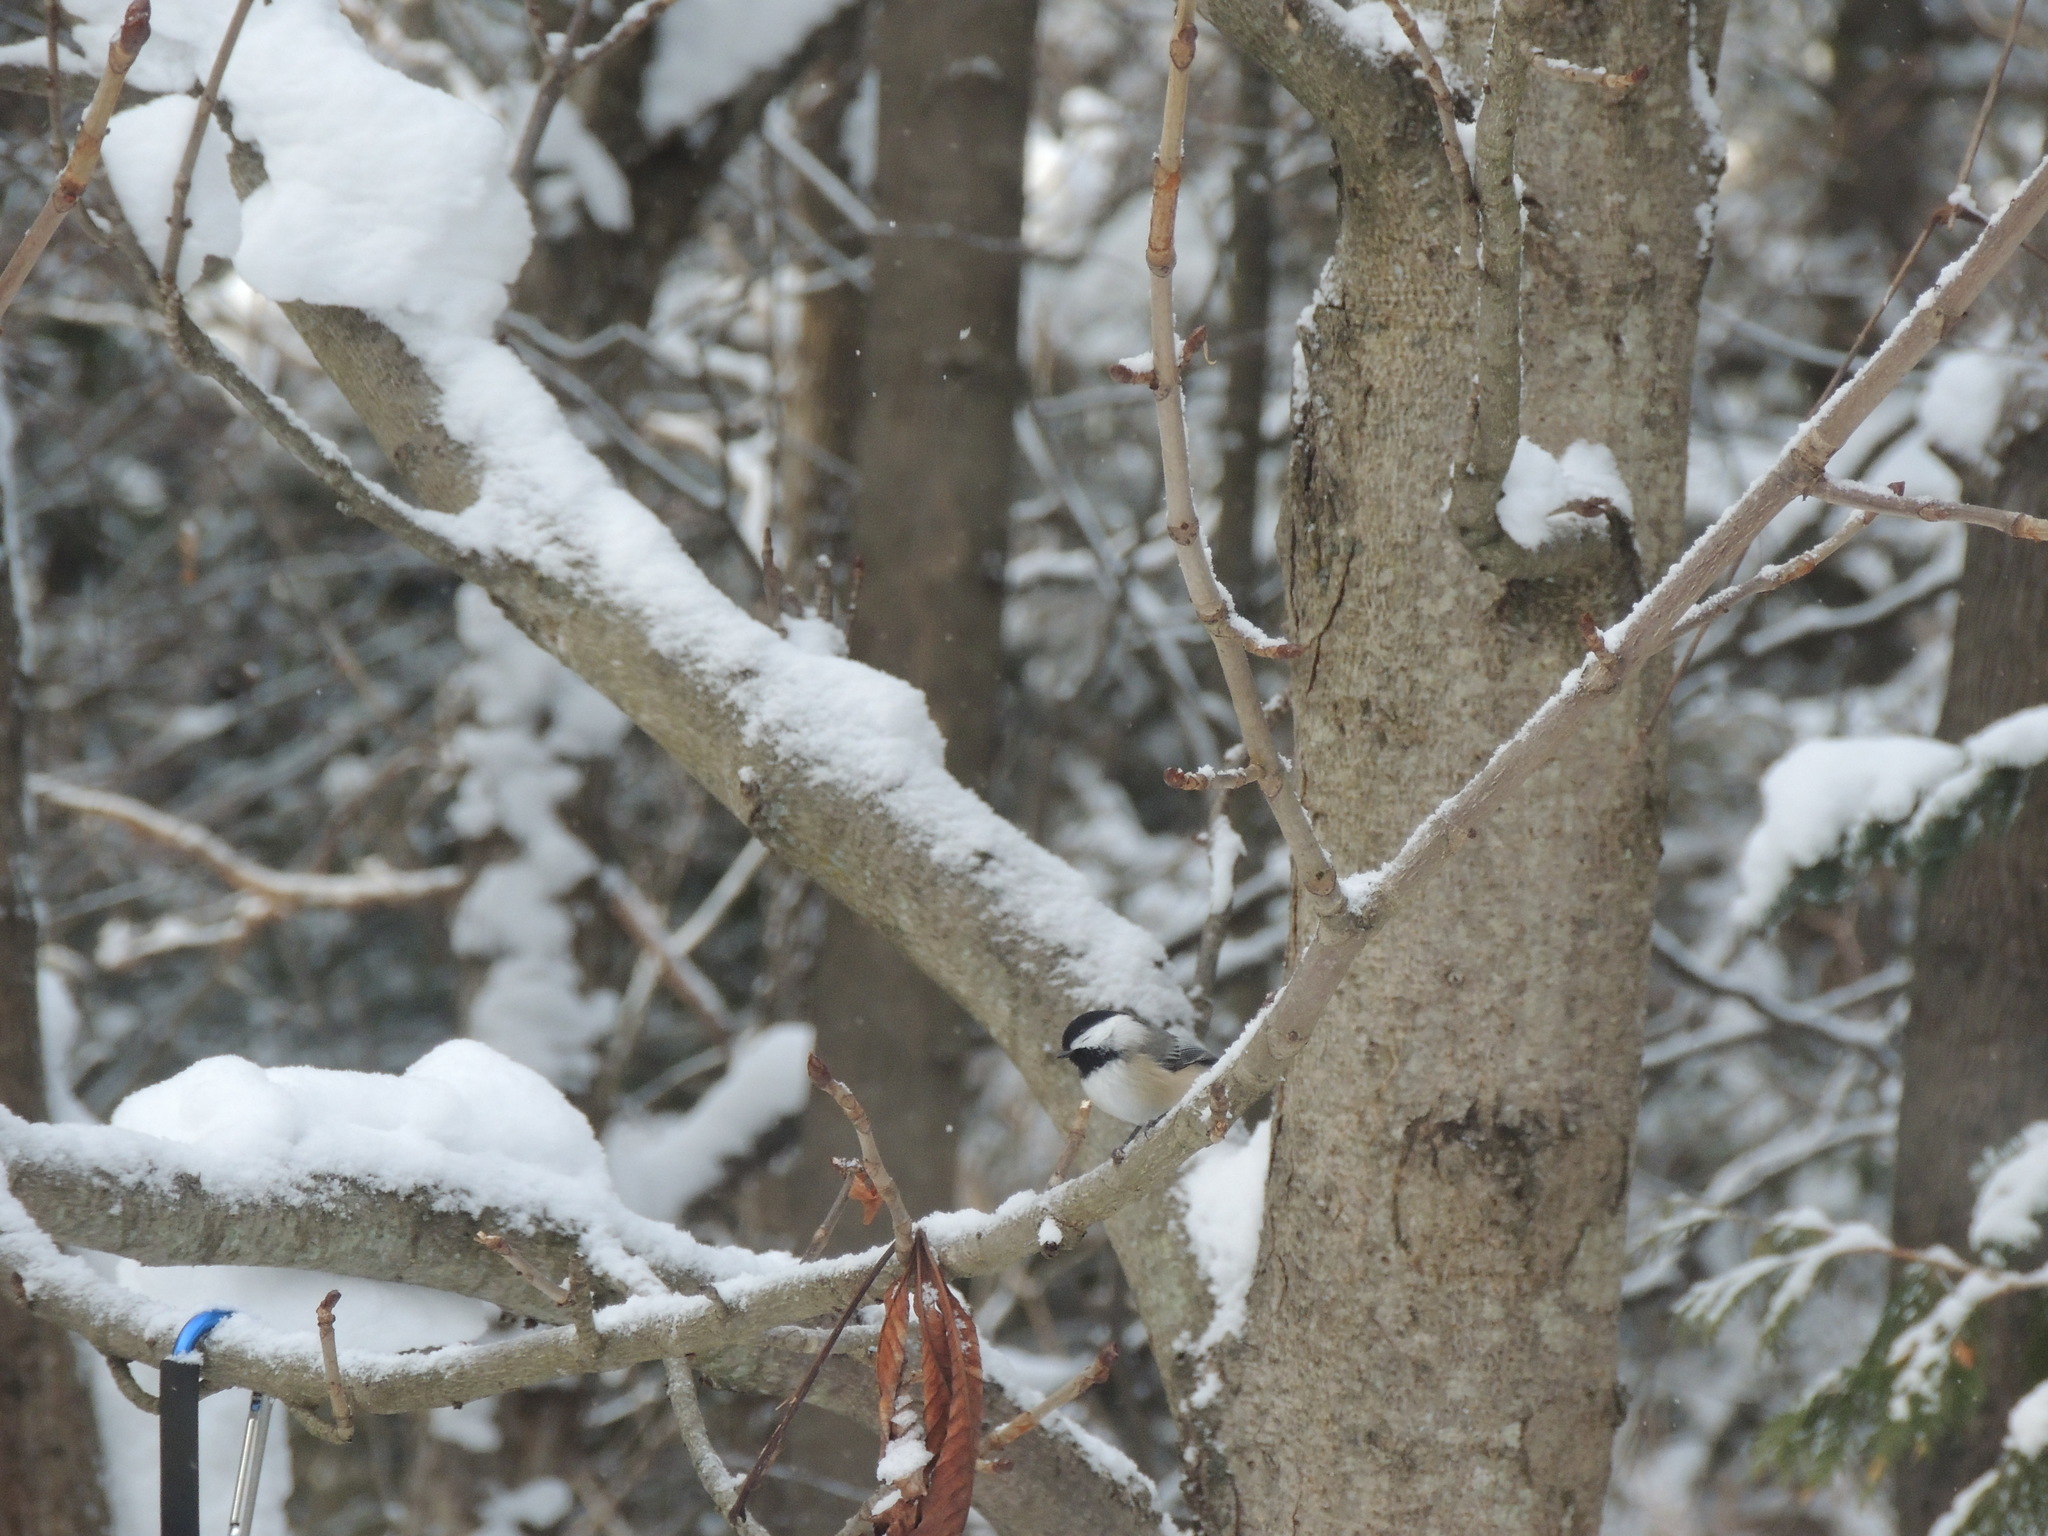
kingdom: Animalia
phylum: Chordata
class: Aves
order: Passeriformes
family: Paridae
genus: Poecile
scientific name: Poecile atricapillus
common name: Black-capped chickadee
